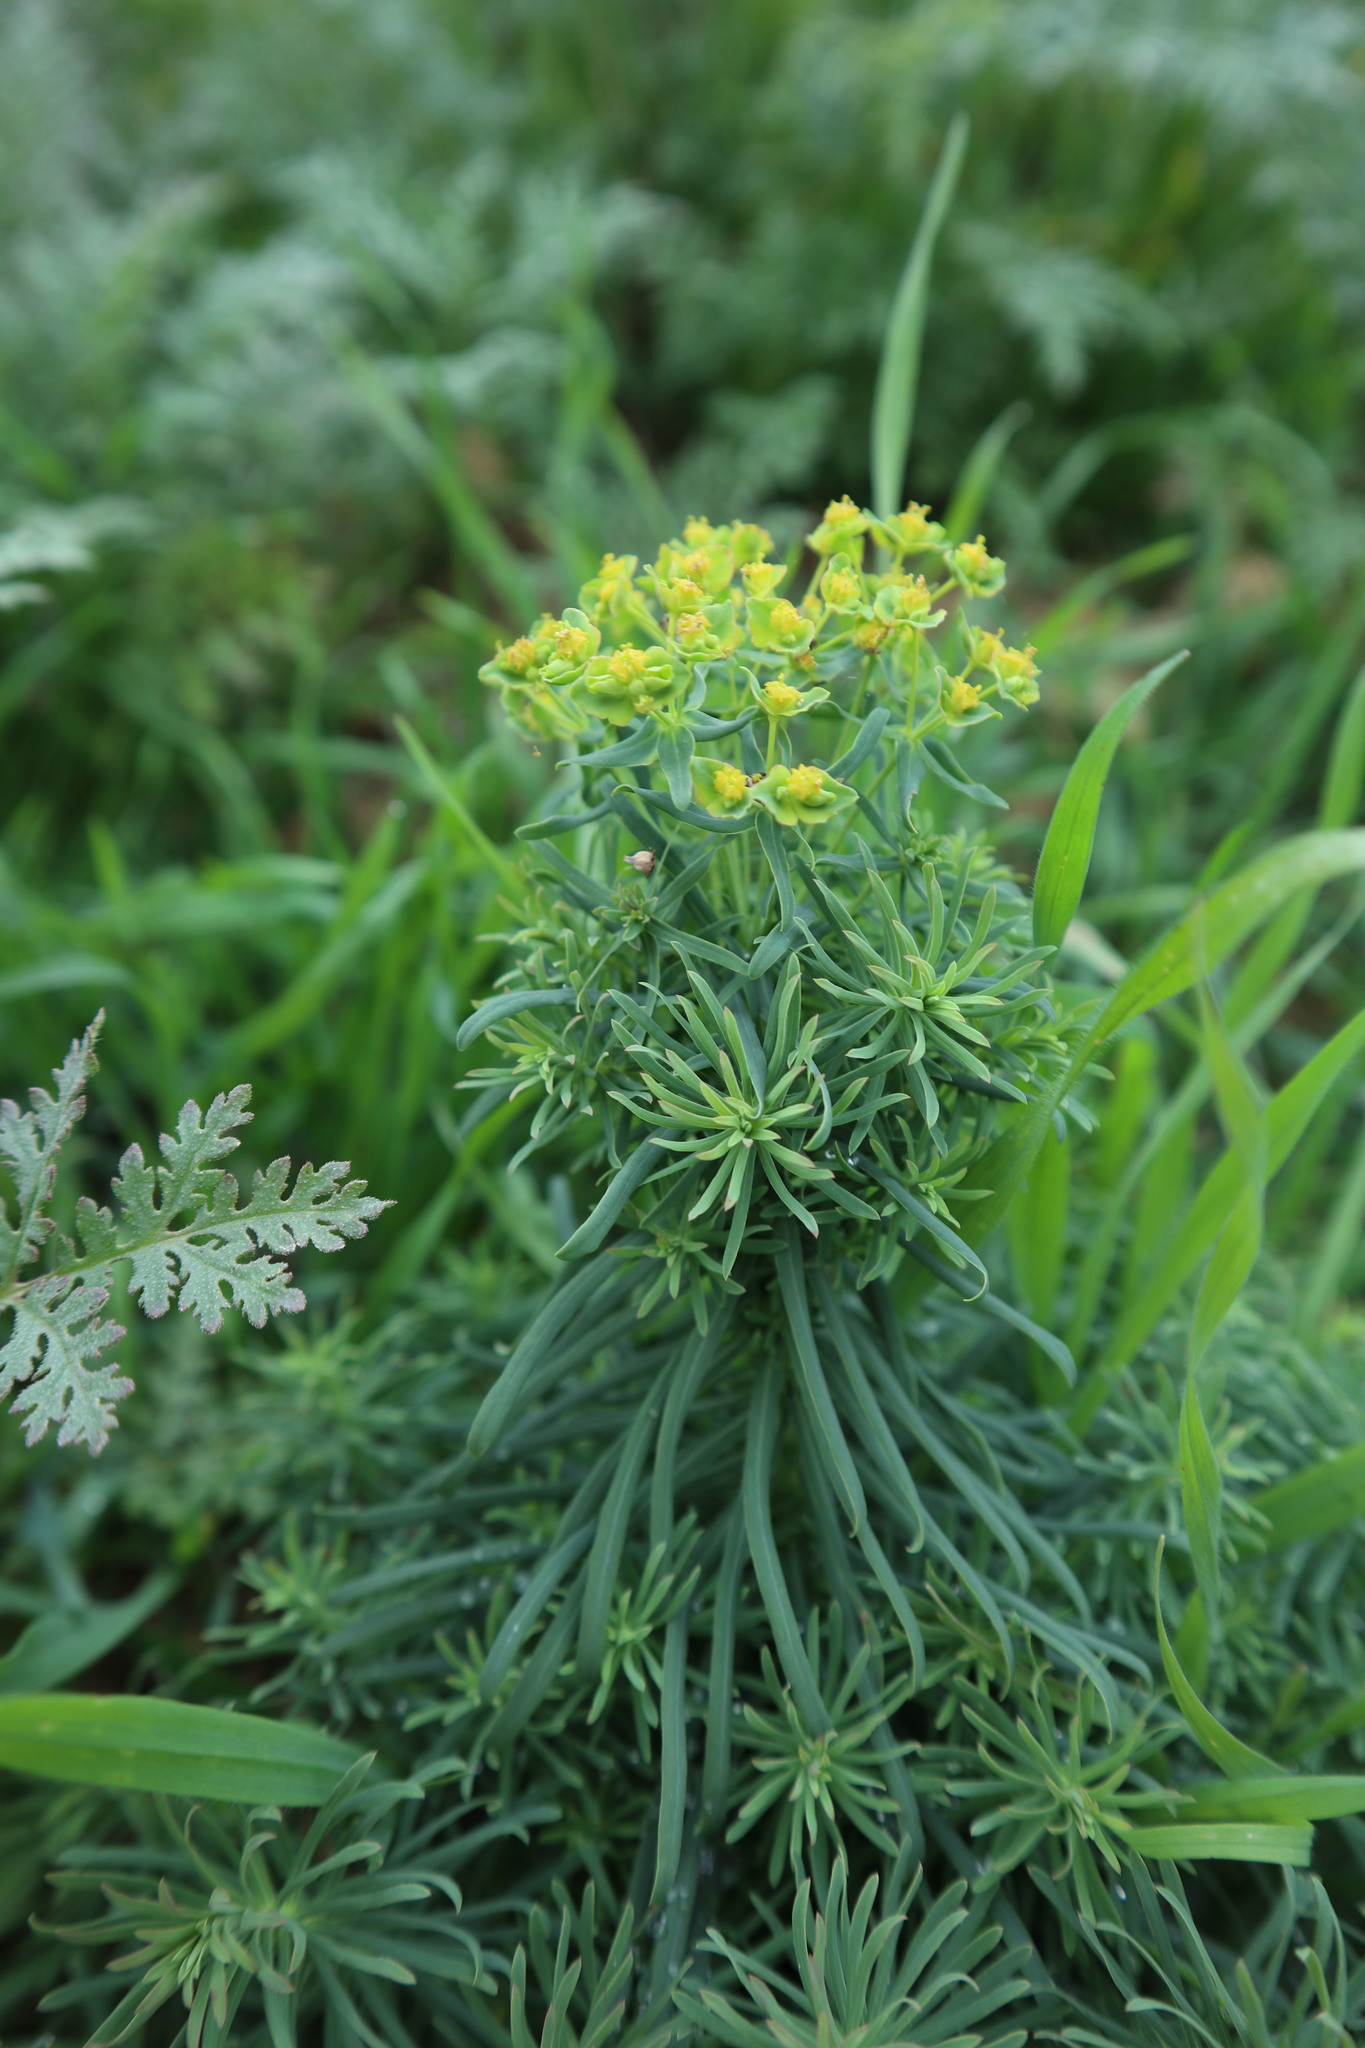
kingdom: Plantae
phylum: Tracheophyta
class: Magnoliopsida
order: Malpighiales
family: Euphorbiaceae
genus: Euphorbia
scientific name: Euphorbia cyparissias
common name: Cypress spurge
